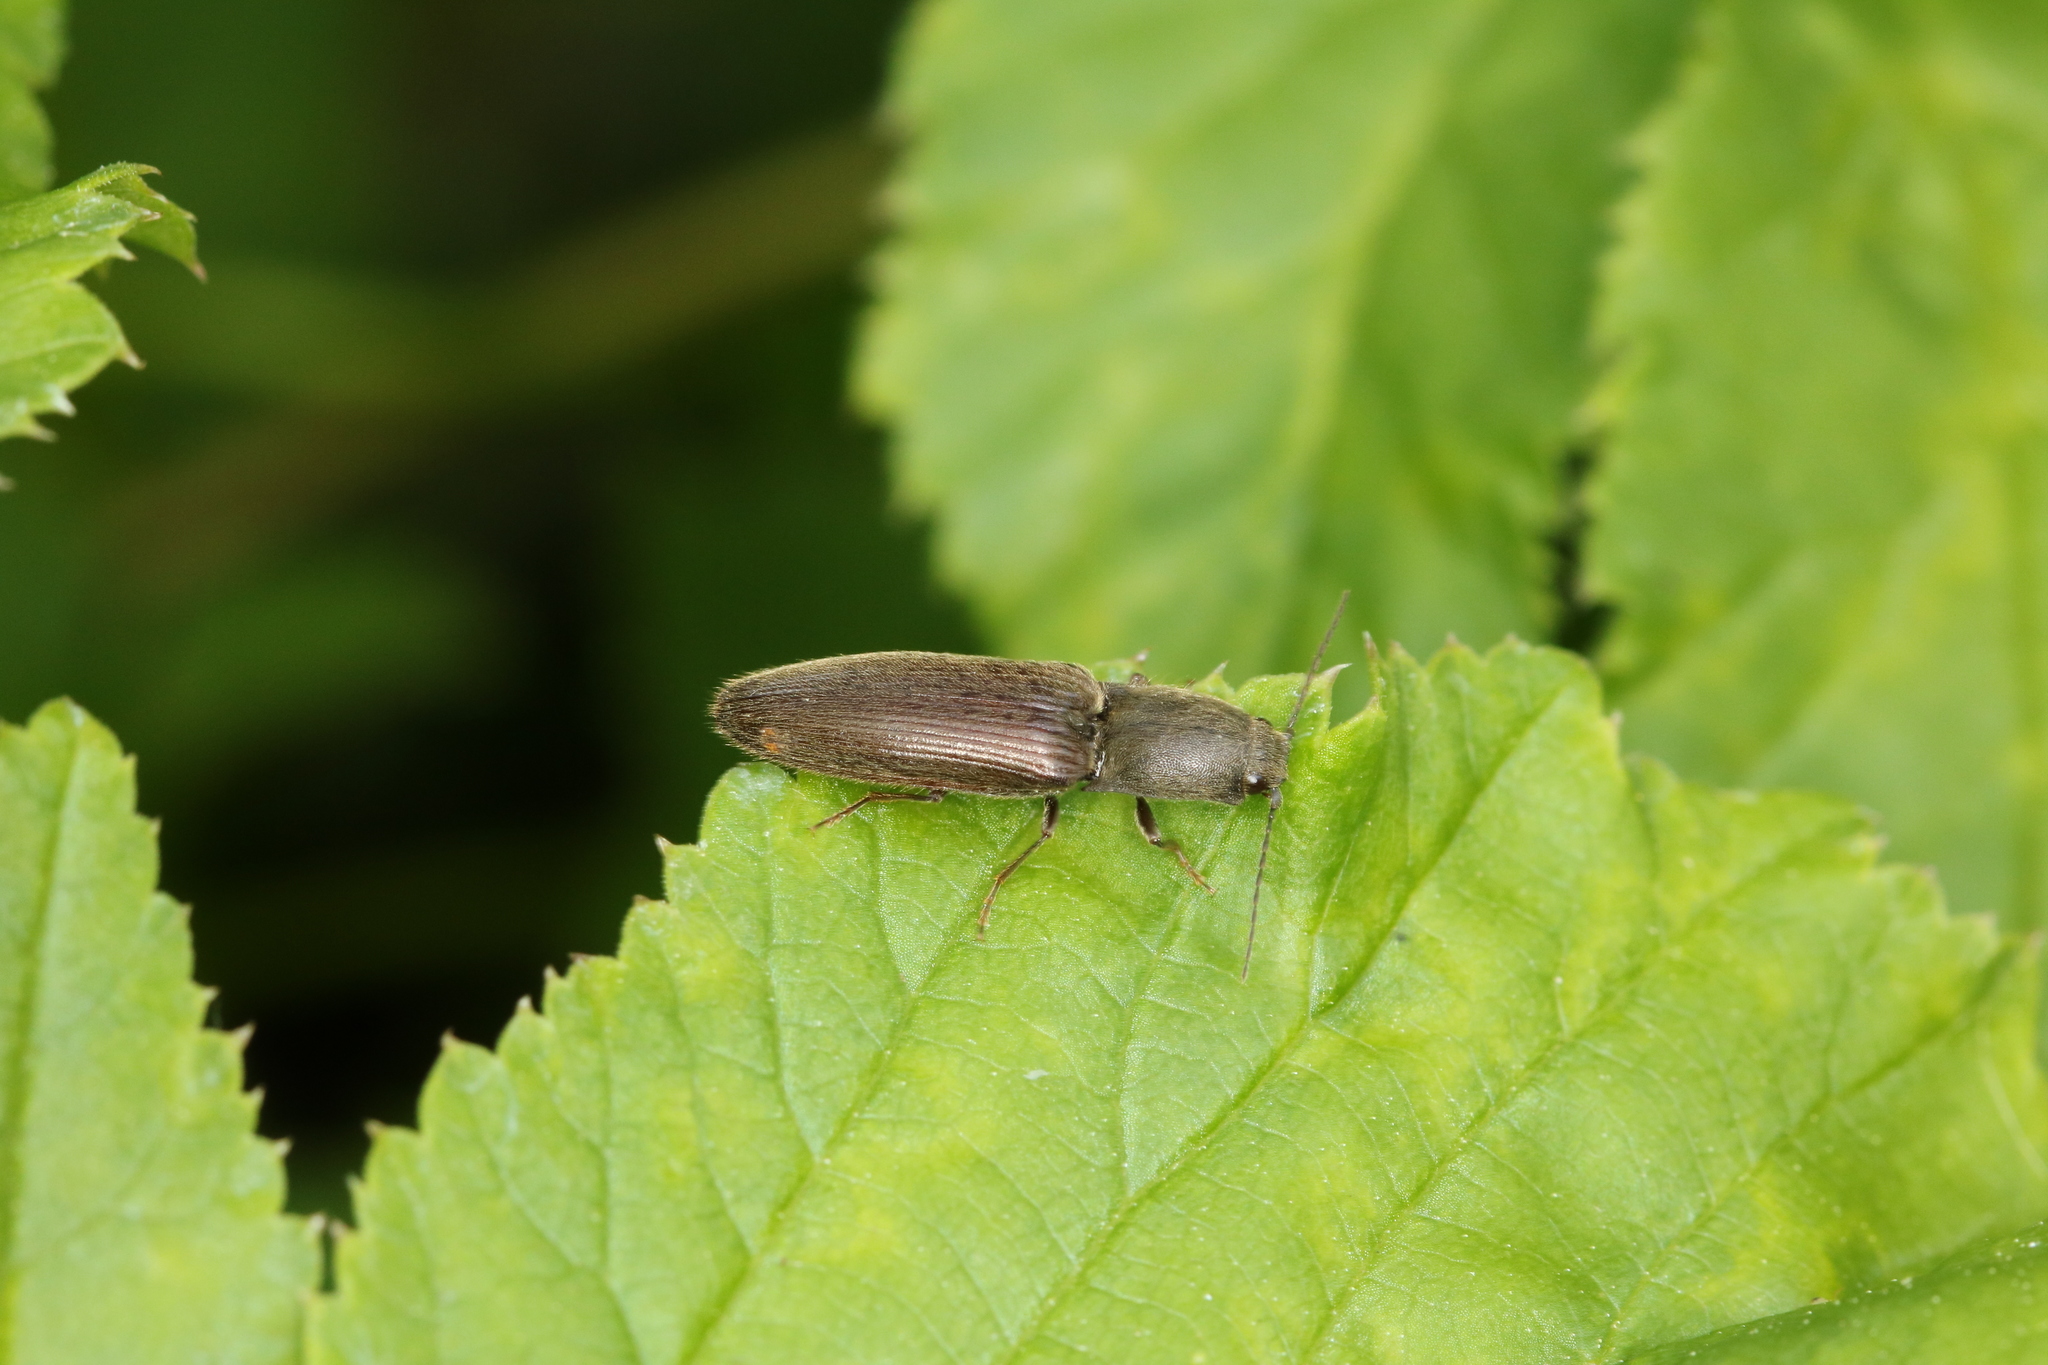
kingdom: Animalia
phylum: Arthropoda
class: Insecta
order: Coleoptera
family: Elateridae
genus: Athous
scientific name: Athous haemorrhoidalis
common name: Red-brown click beetle
